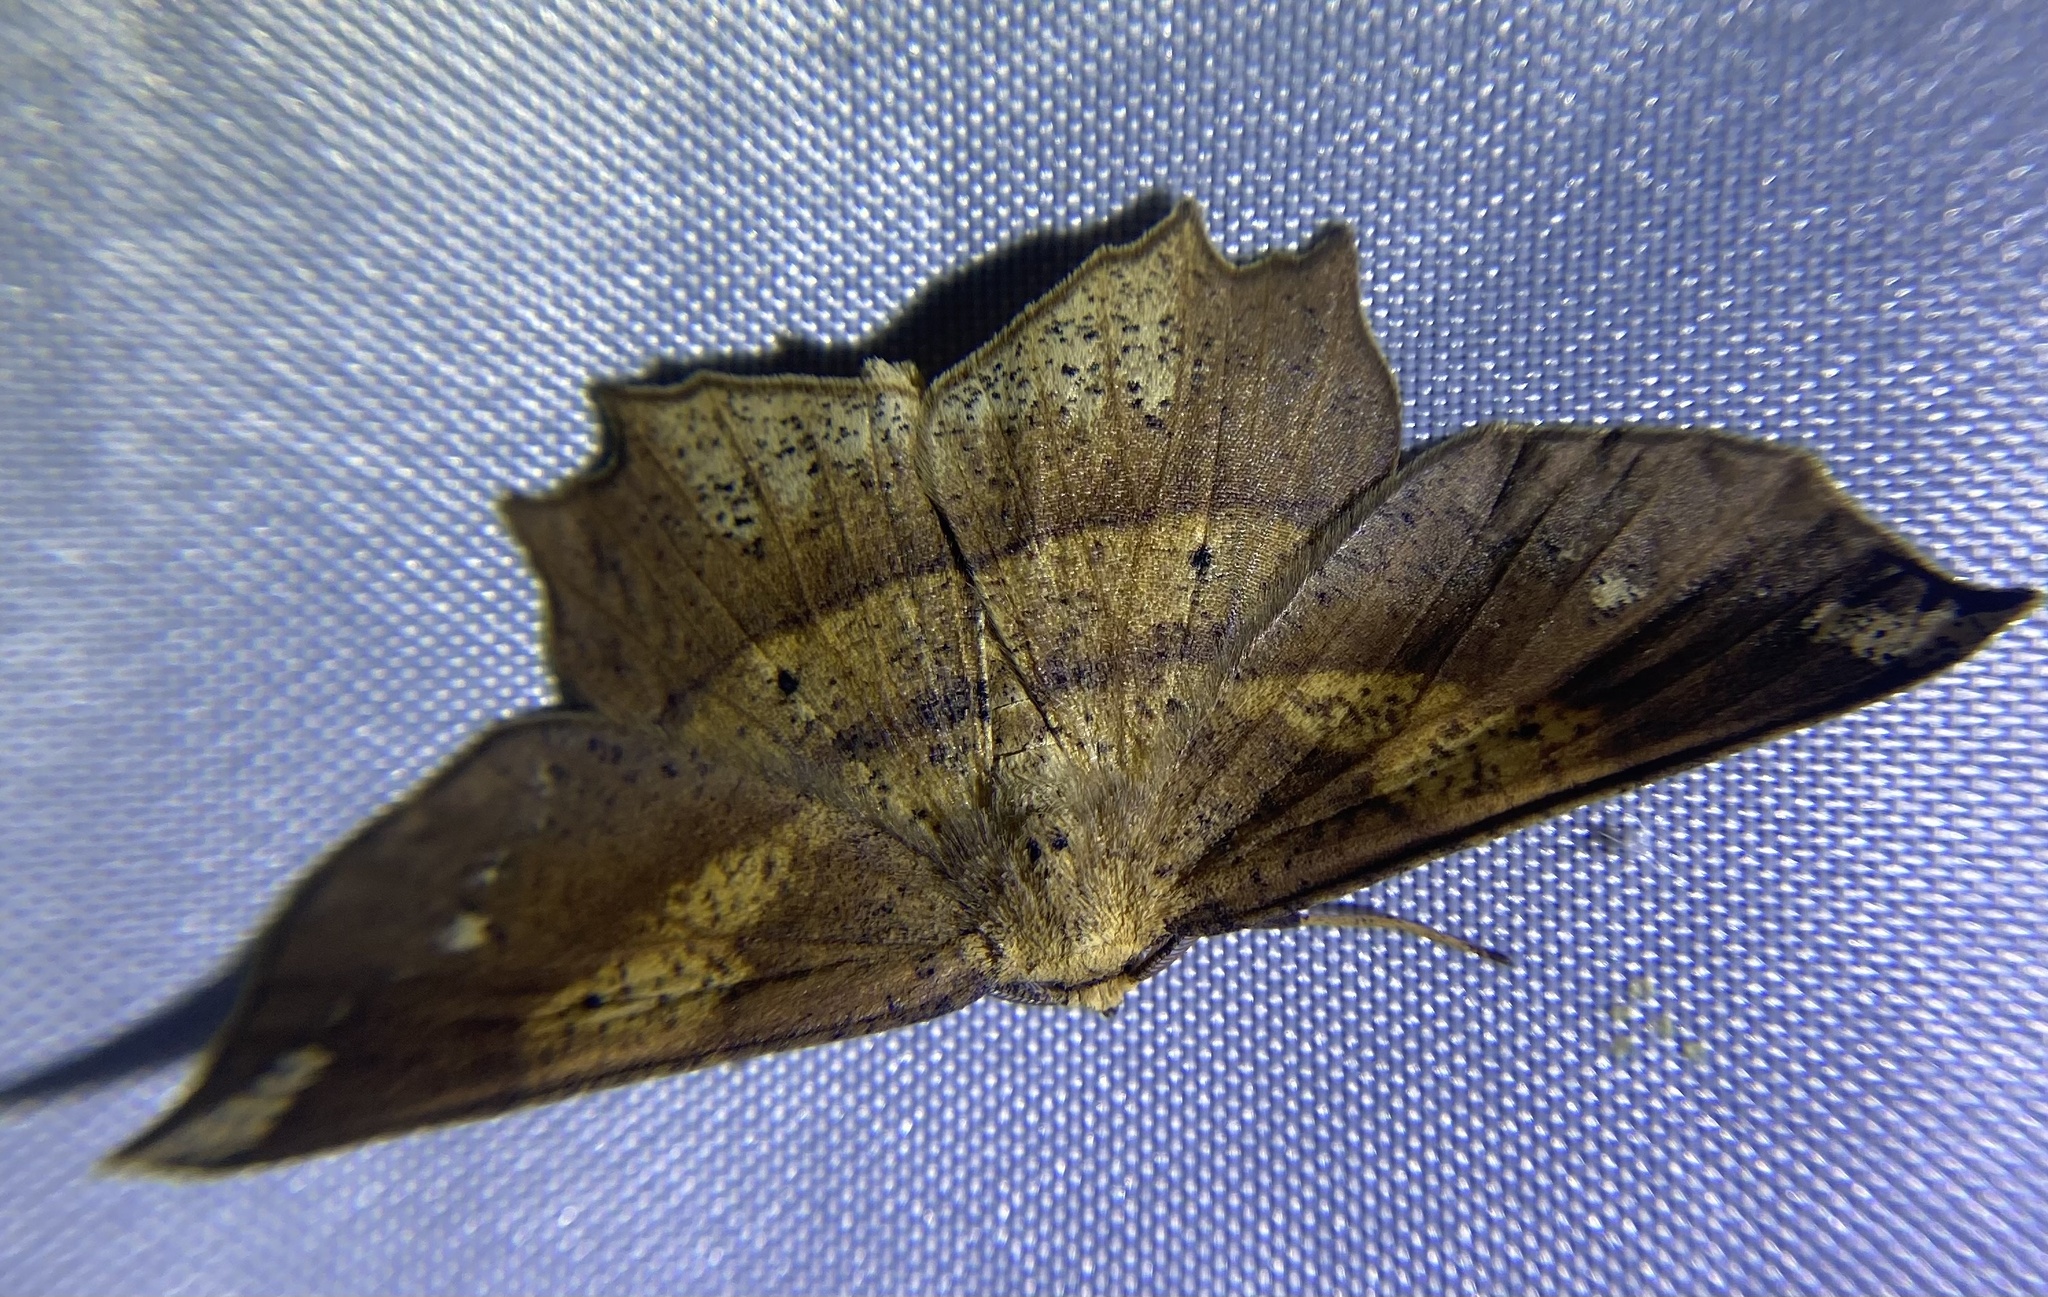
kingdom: Animalia
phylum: Arthropoda
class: Insecta
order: Lepidoptera
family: Geometridae
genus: Euchlaena
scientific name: Euchlaena amoenaria
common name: Deep yellow euchlaena
